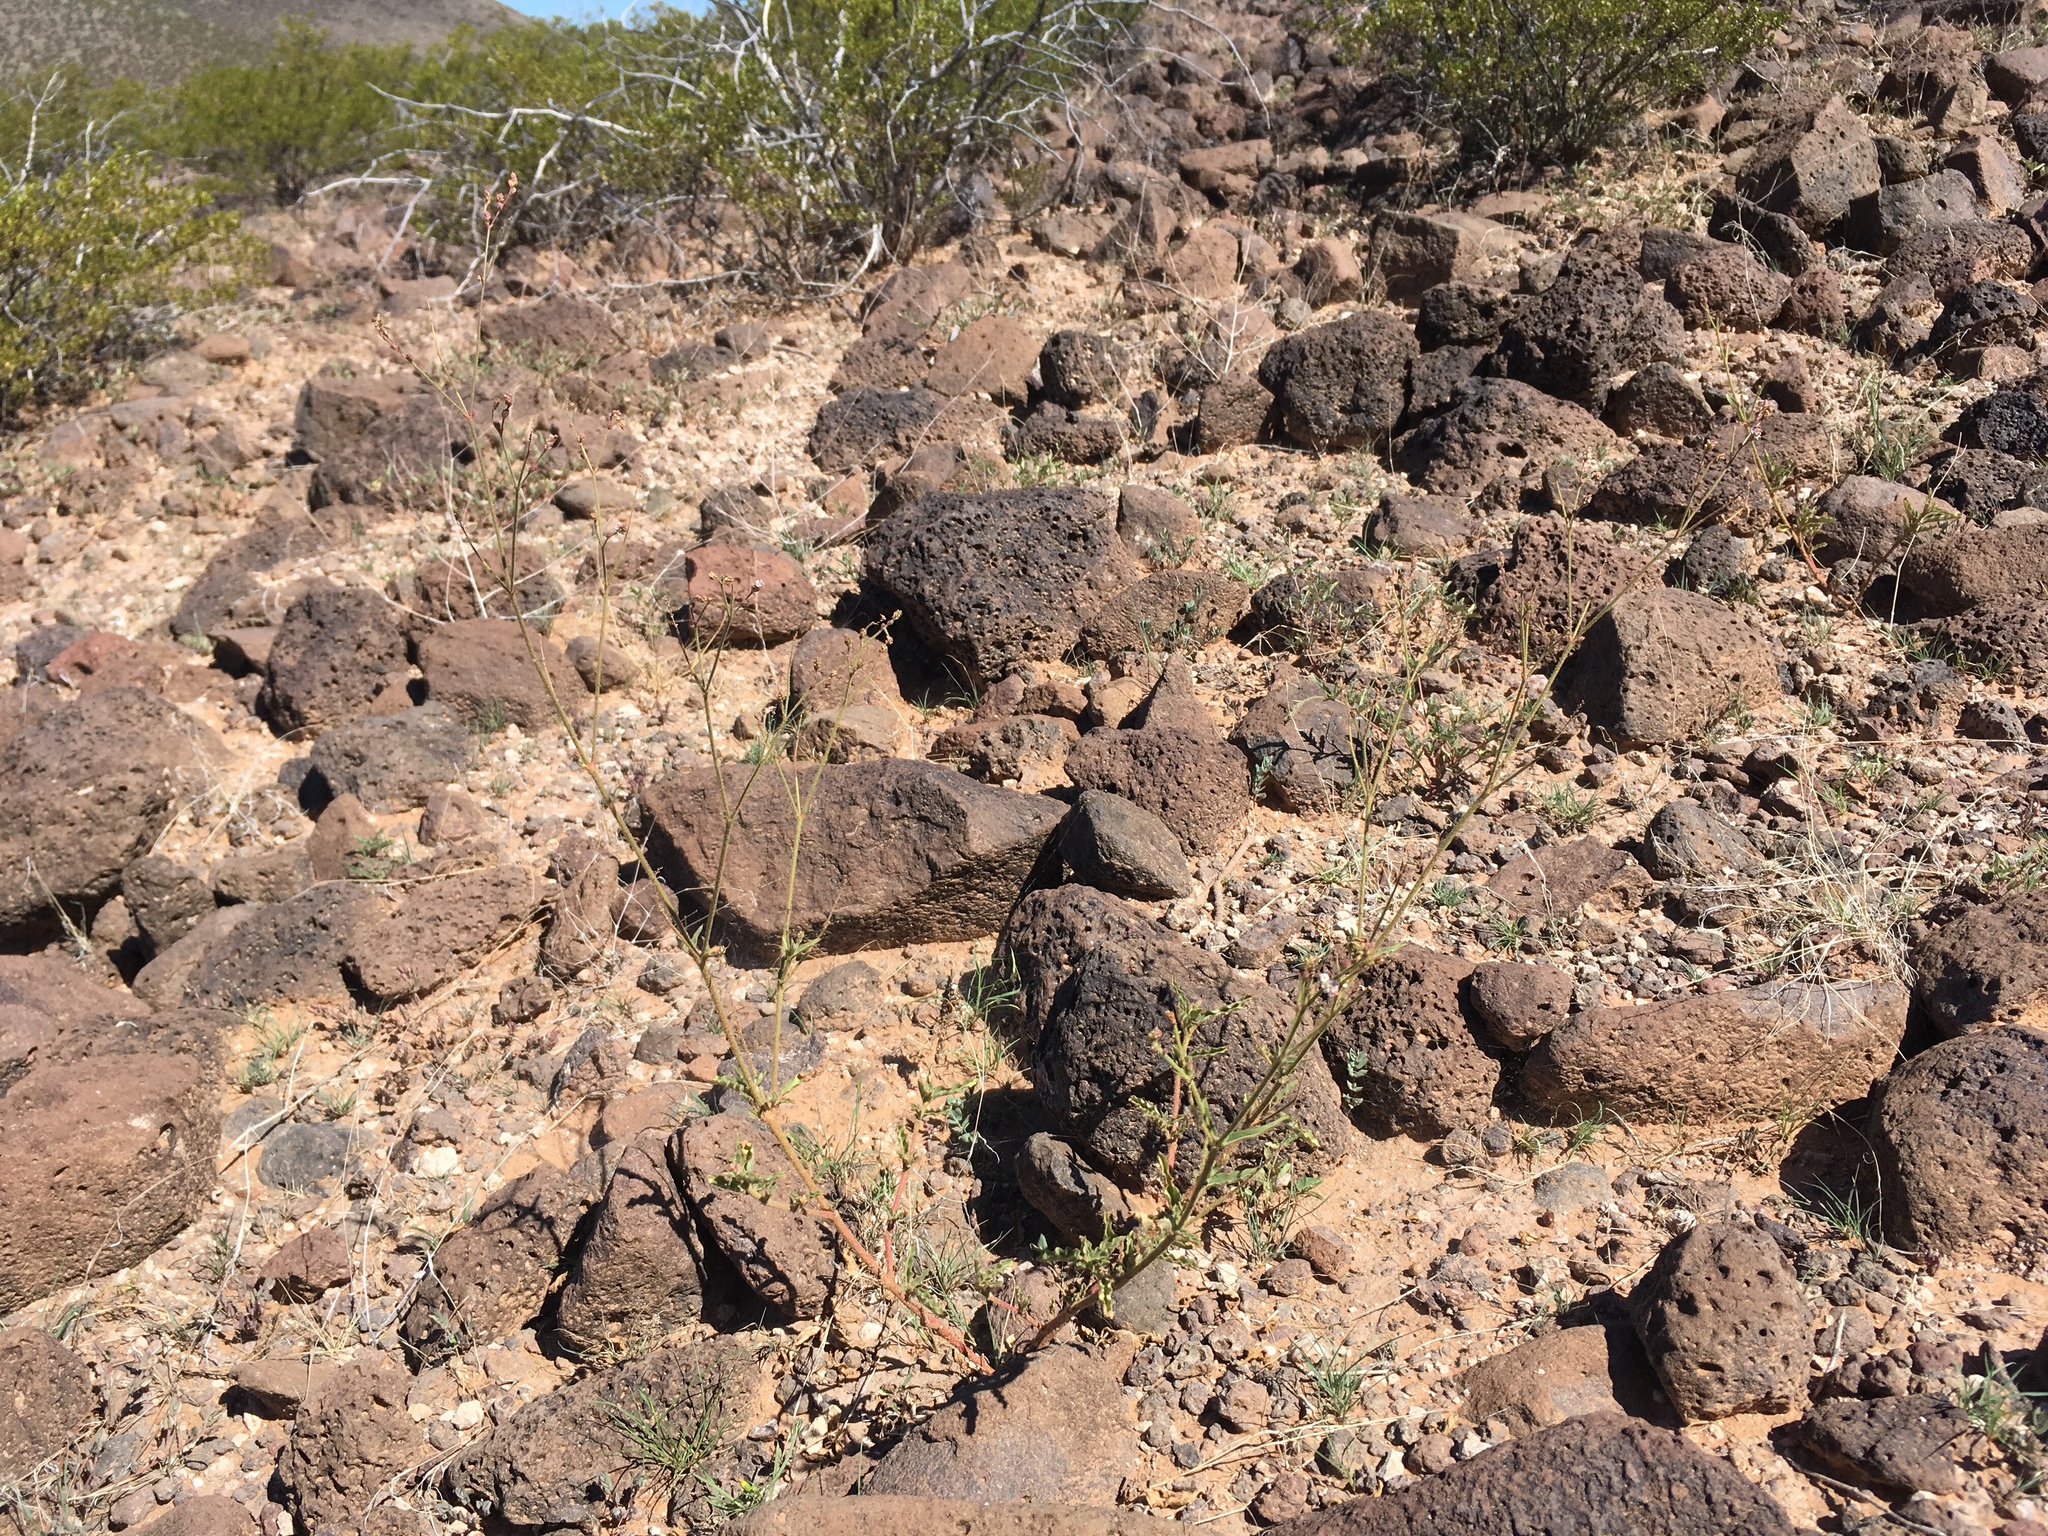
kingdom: Plantae
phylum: Tracheophyta
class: Magnoliopsida
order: Caryophyllales
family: Nyctaginaceae
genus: Boerhavia
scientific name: Boerhavia wrightii
